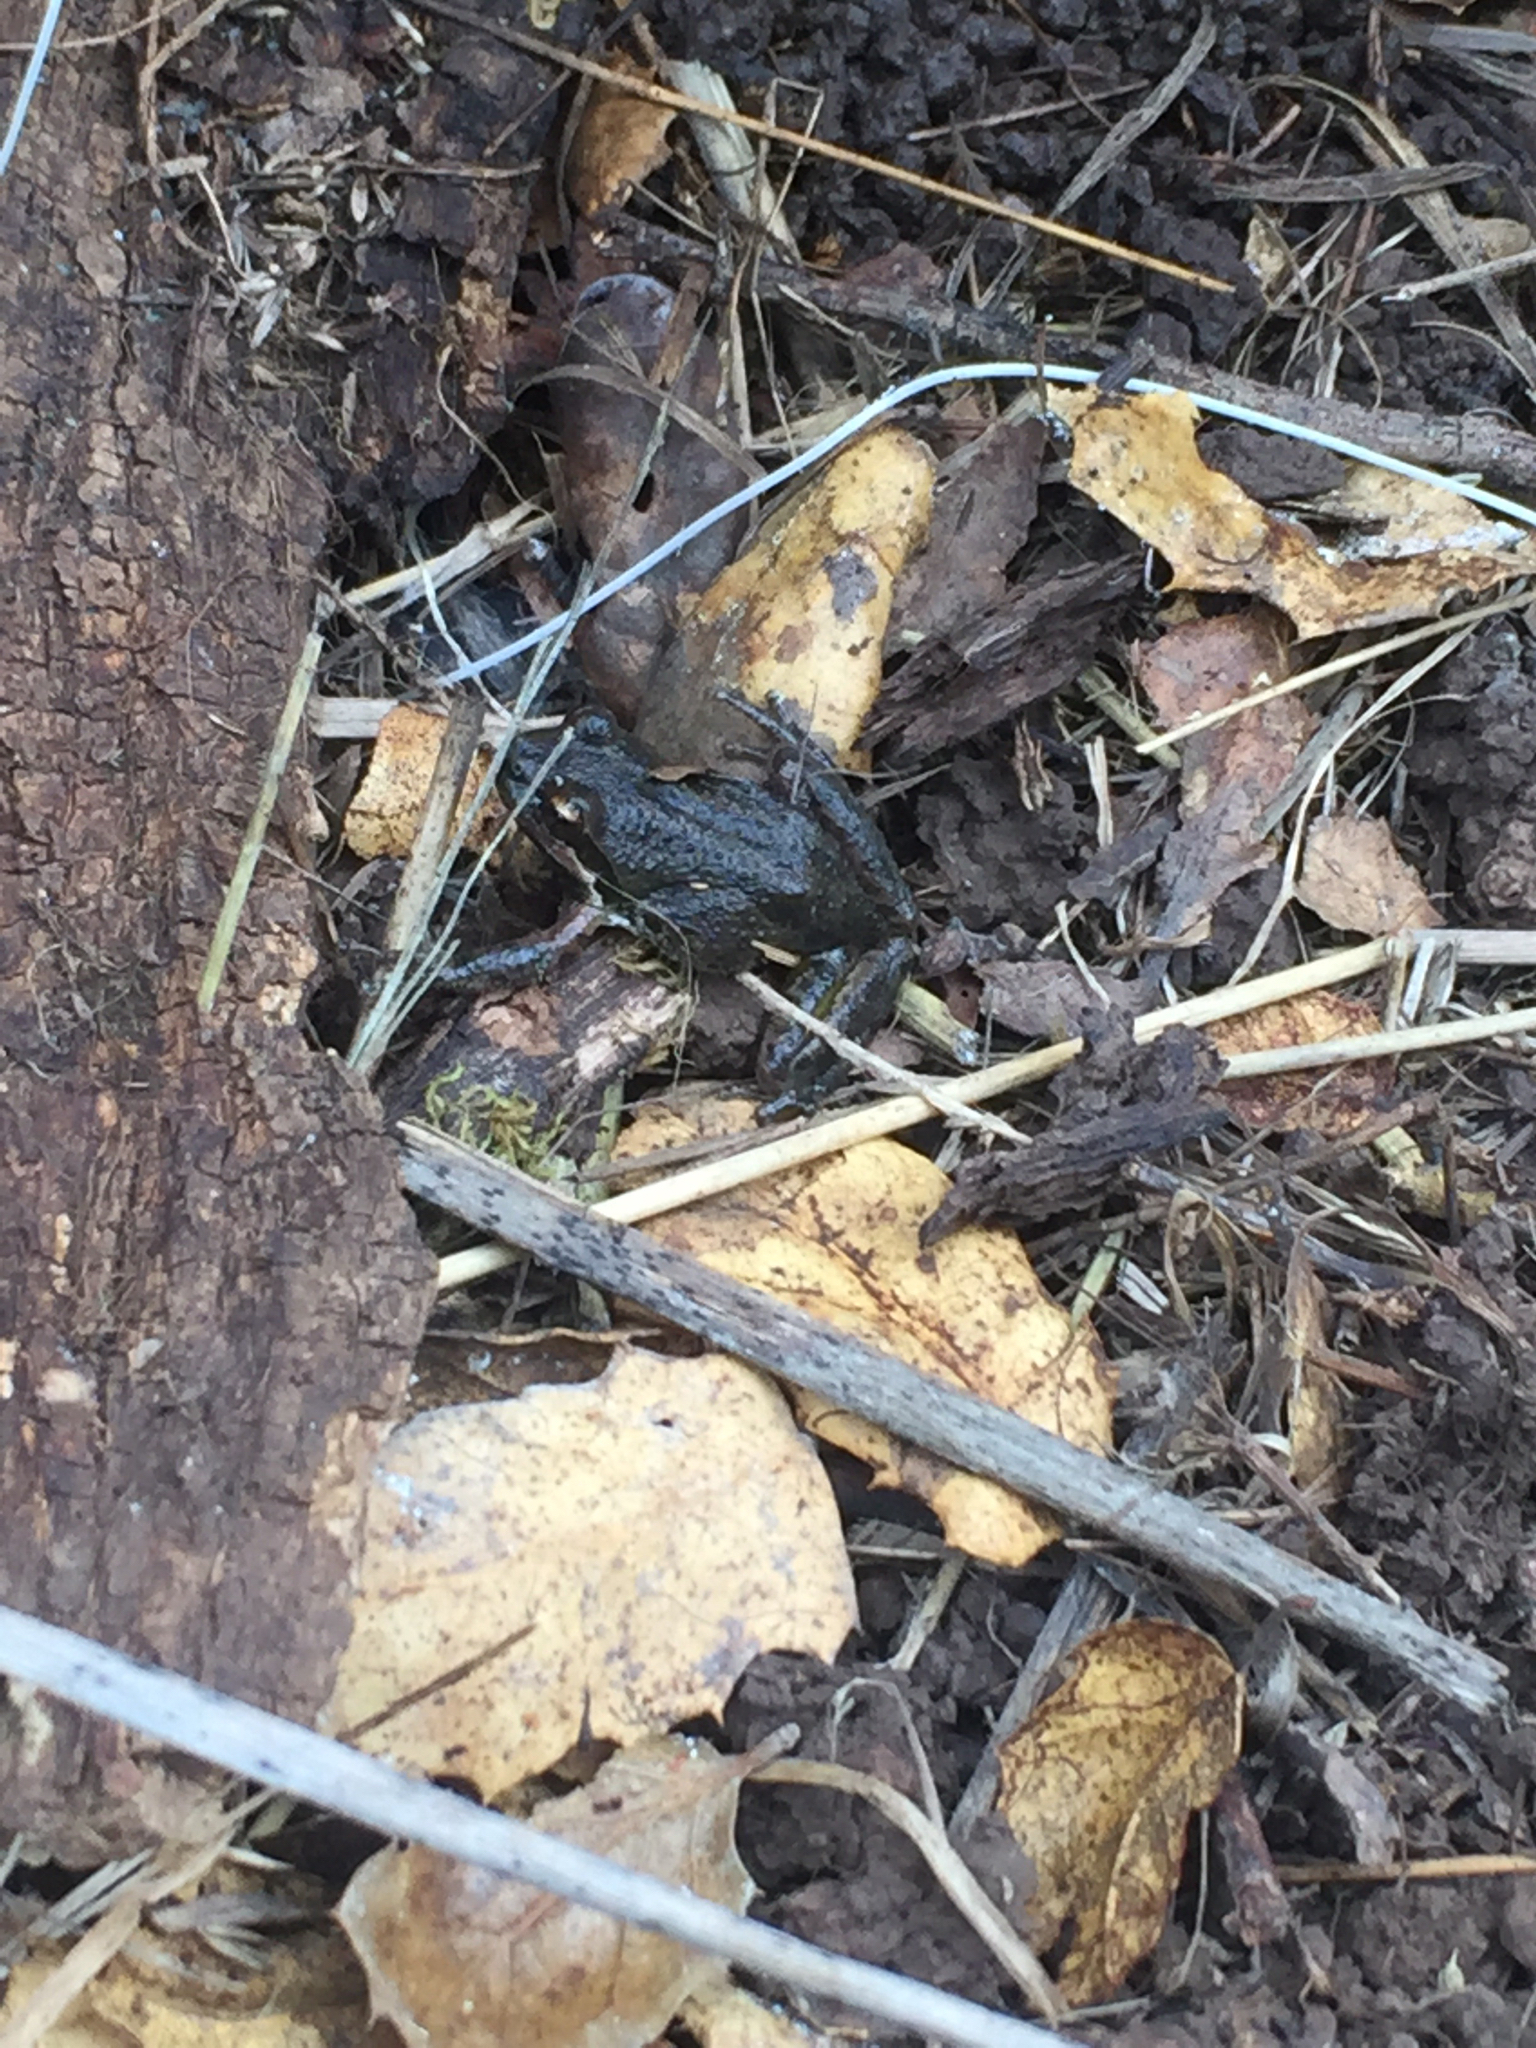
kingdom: Animalia
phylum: Chordata
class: Amphibia
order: Anura
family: Hylidae
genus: Pseudacris
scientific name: Pseudacris regilla
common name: Pacific chorus frog
